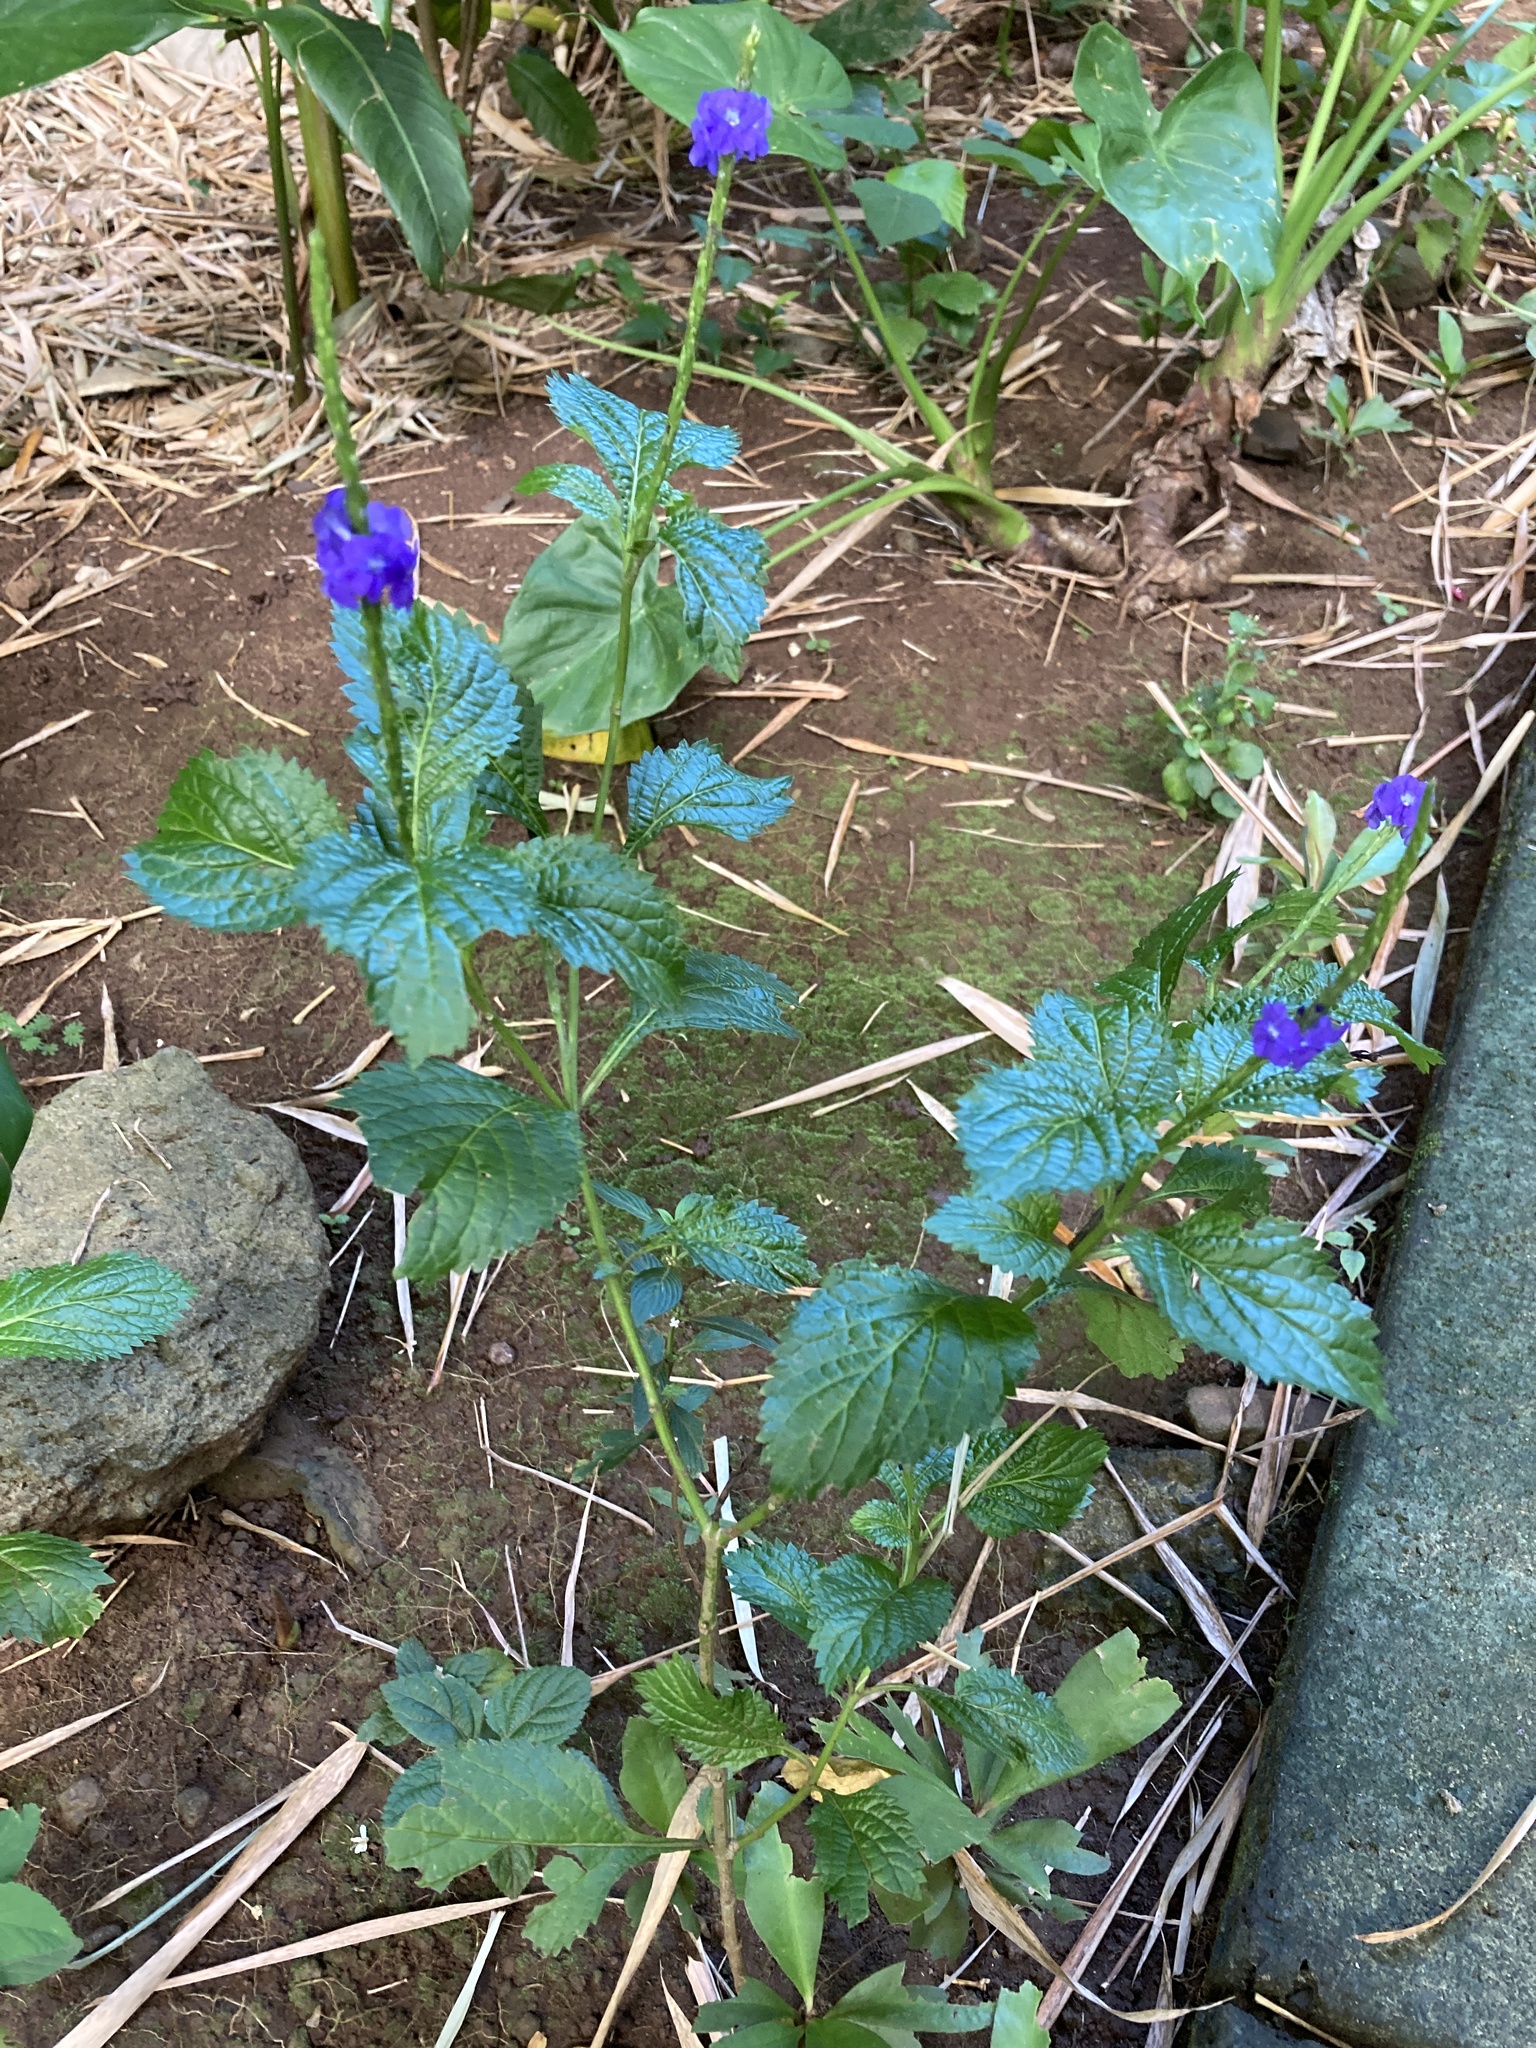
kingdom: Plantae
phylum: Tracheophyta
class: Magnoliopsida
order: Lamiales
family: Verbenaceae
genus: Stachytarpheta
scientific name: Stachytarpheta cayennensis
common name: Cayenne porterweed
